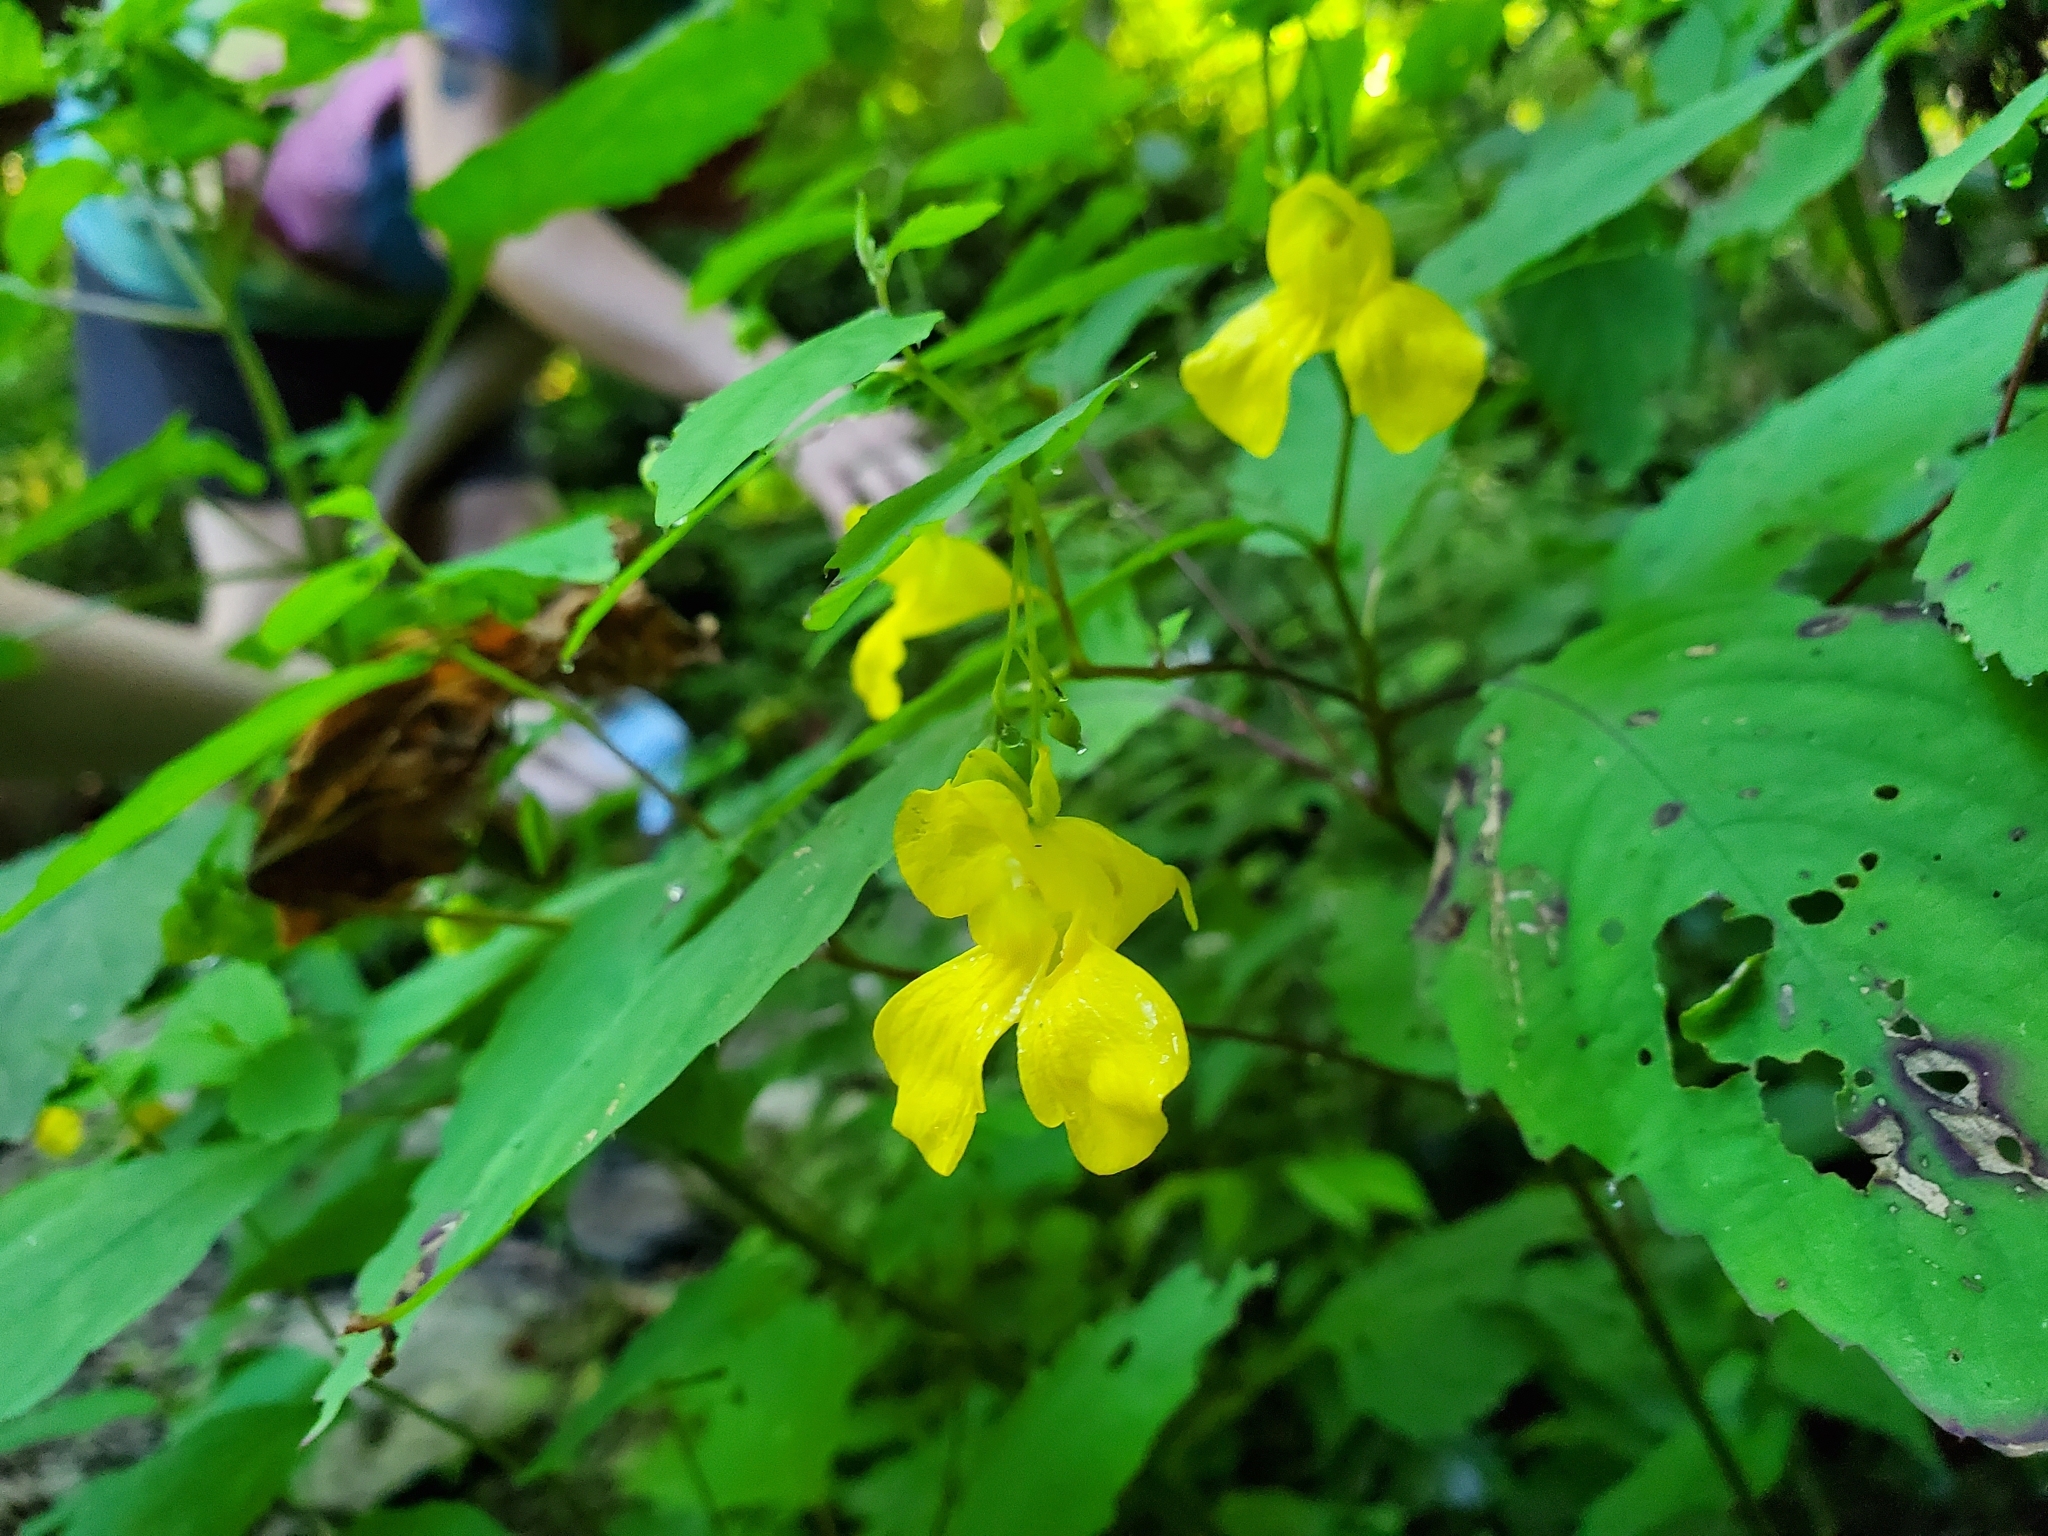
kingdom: Plantae
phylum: Tracheophyta
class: Magnoliopsida
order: Ericales
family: Balsaminaceae
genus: Impatiens
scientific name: Impatiens pallida
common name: Pale snapweed
